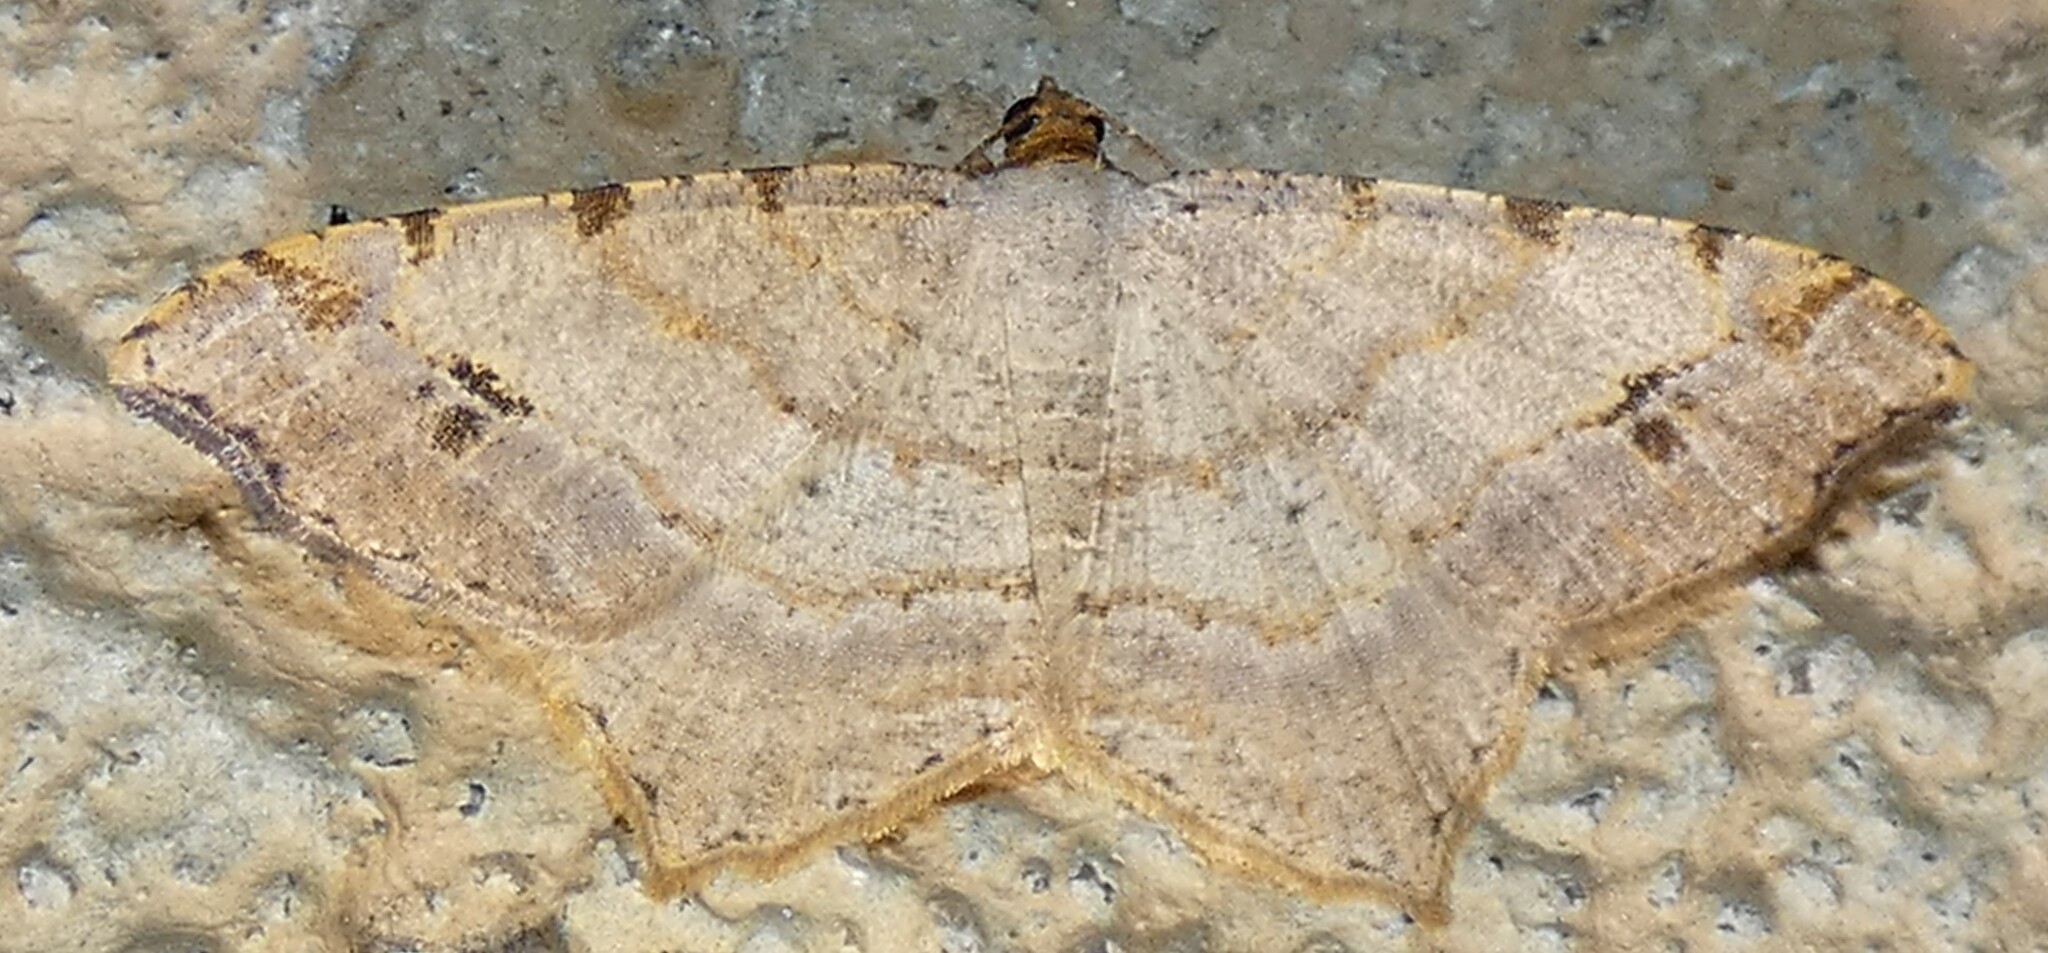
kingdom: Animalia
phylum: Arthropoda
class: Insecta
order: Lepidoptera
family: Geometridae
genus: Macaria
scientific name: Macaria bisignata
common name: Red-headed inchworm
